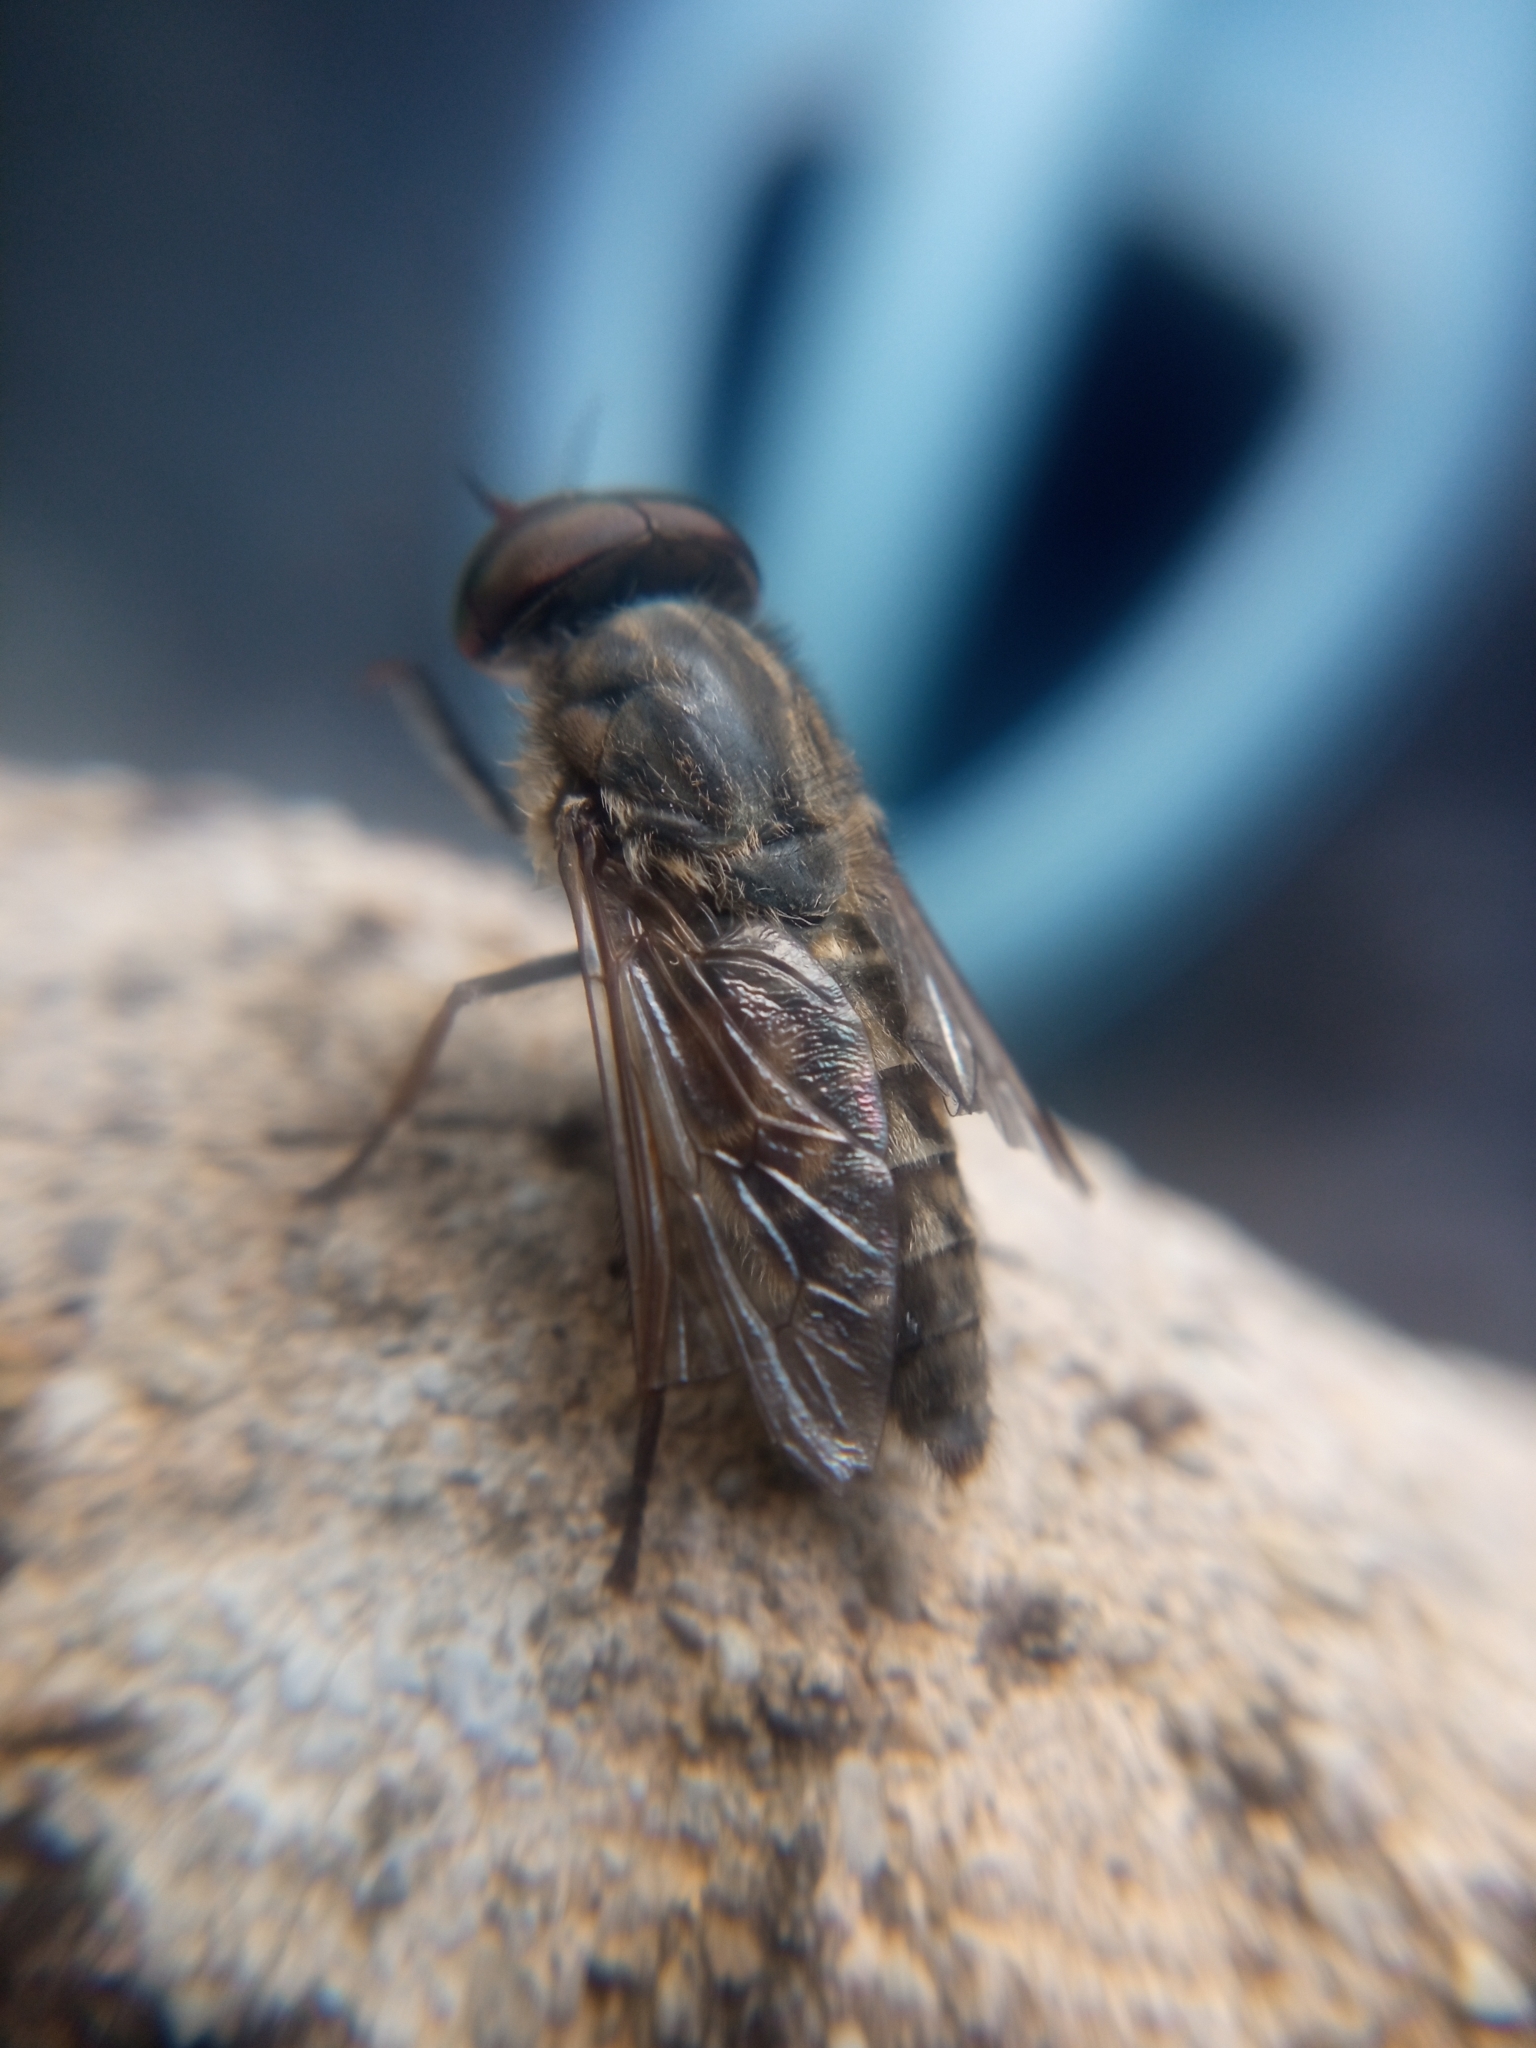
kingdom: Animalia
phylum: Arthropoda
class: Insecta
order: Diptera
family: Tabanidae
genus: Tabanus
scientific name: Tabanus bromius
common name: Band-eyed brown horsefly
